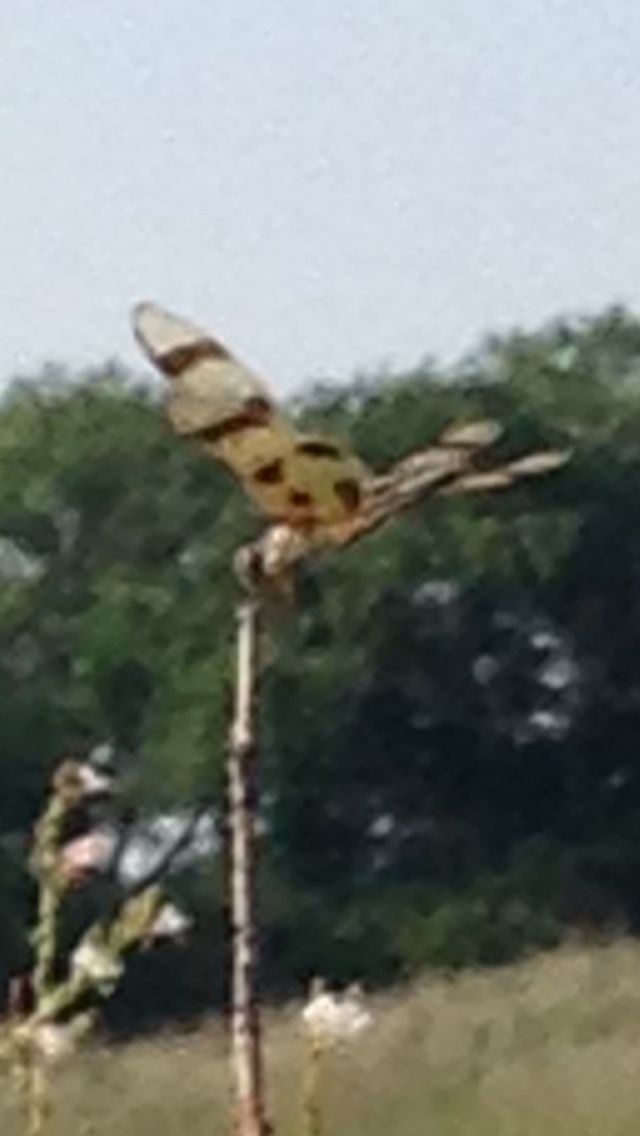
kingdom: Animalia
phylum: Arthropoda
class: Insecta
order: Odonata
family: Libellulidae
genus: Celithemis
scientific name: Celithemis eponina
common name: Halloween pennant
